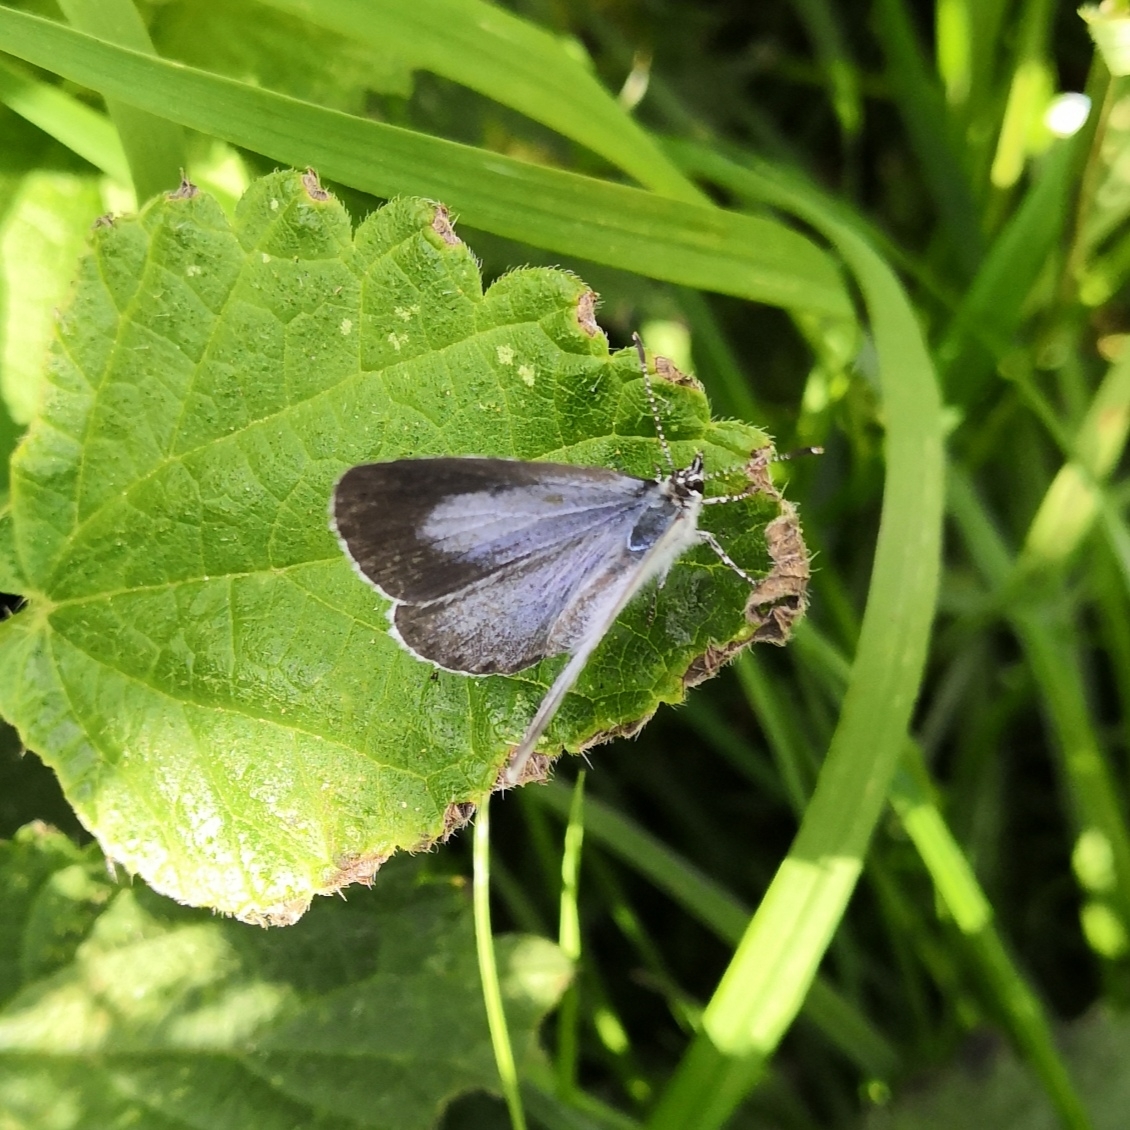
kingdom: Animalia
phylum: Arthropoda
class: Insecta
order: Lepidoptera
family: Lycaenidae
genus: Celastrina
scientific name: Celastrina argiolus
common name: Holly blue
